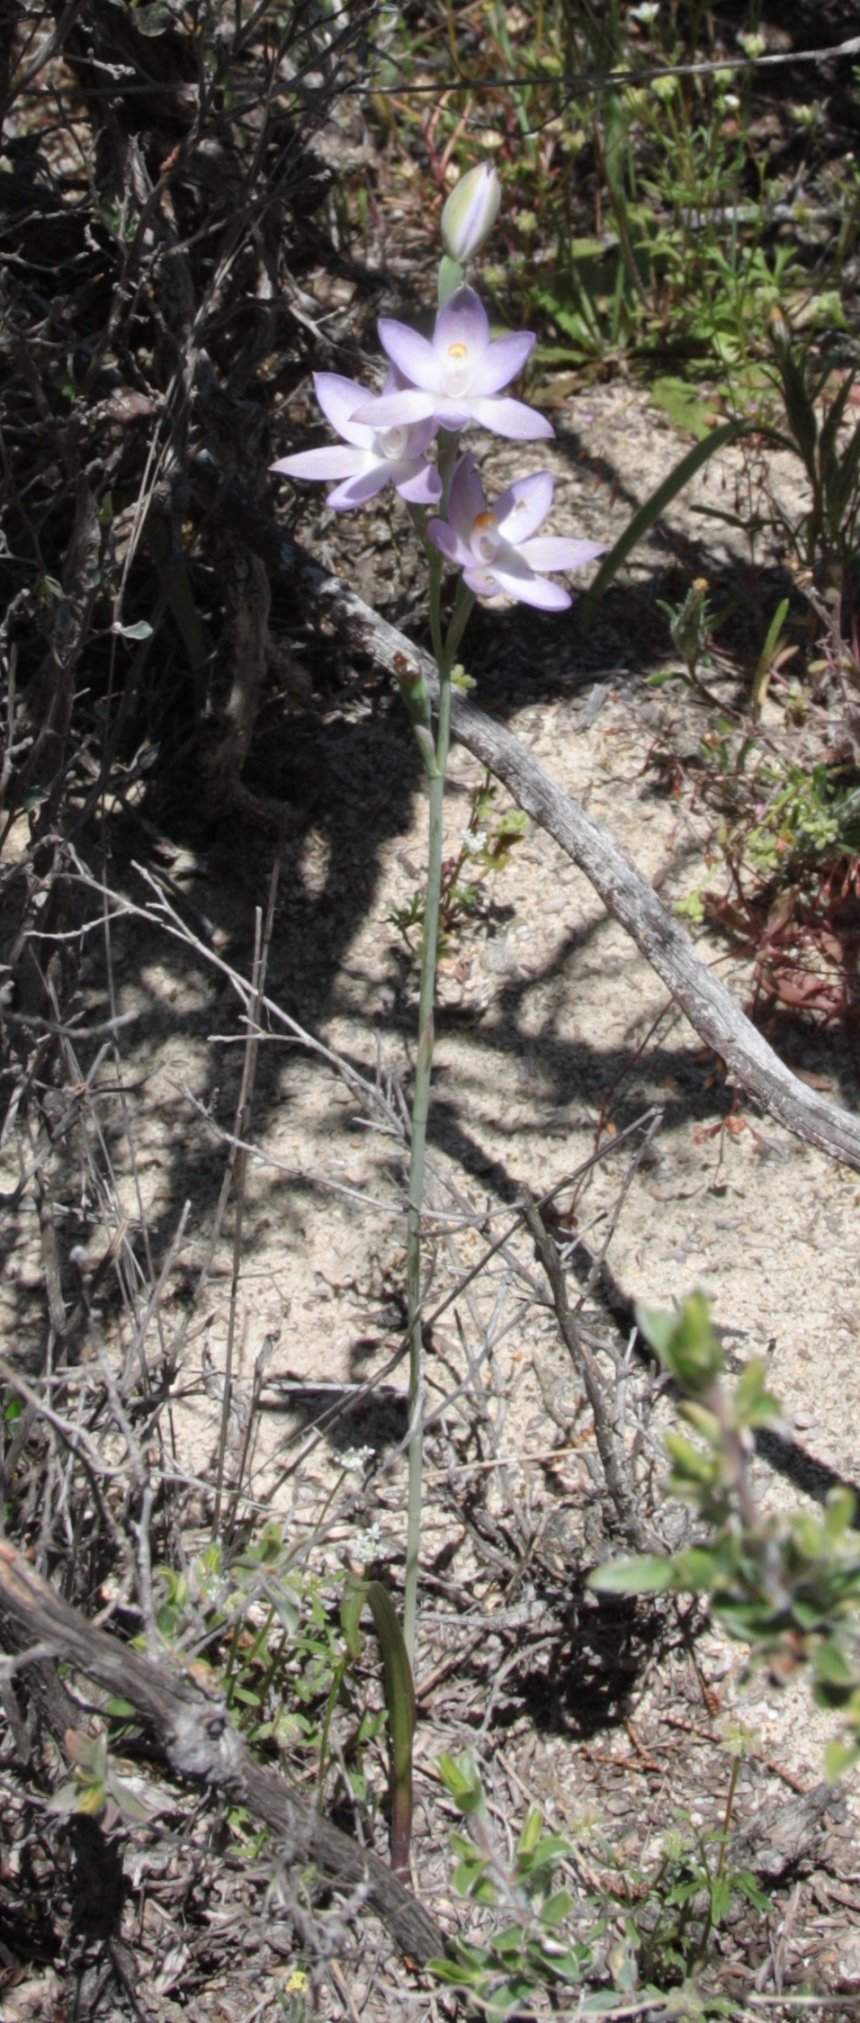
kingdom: Plantae
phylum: Tracheophyta
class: Liliopsida
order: Asparagales
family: Orchidaceae
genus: Thelymitra
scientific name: Thelymitra petrophila
